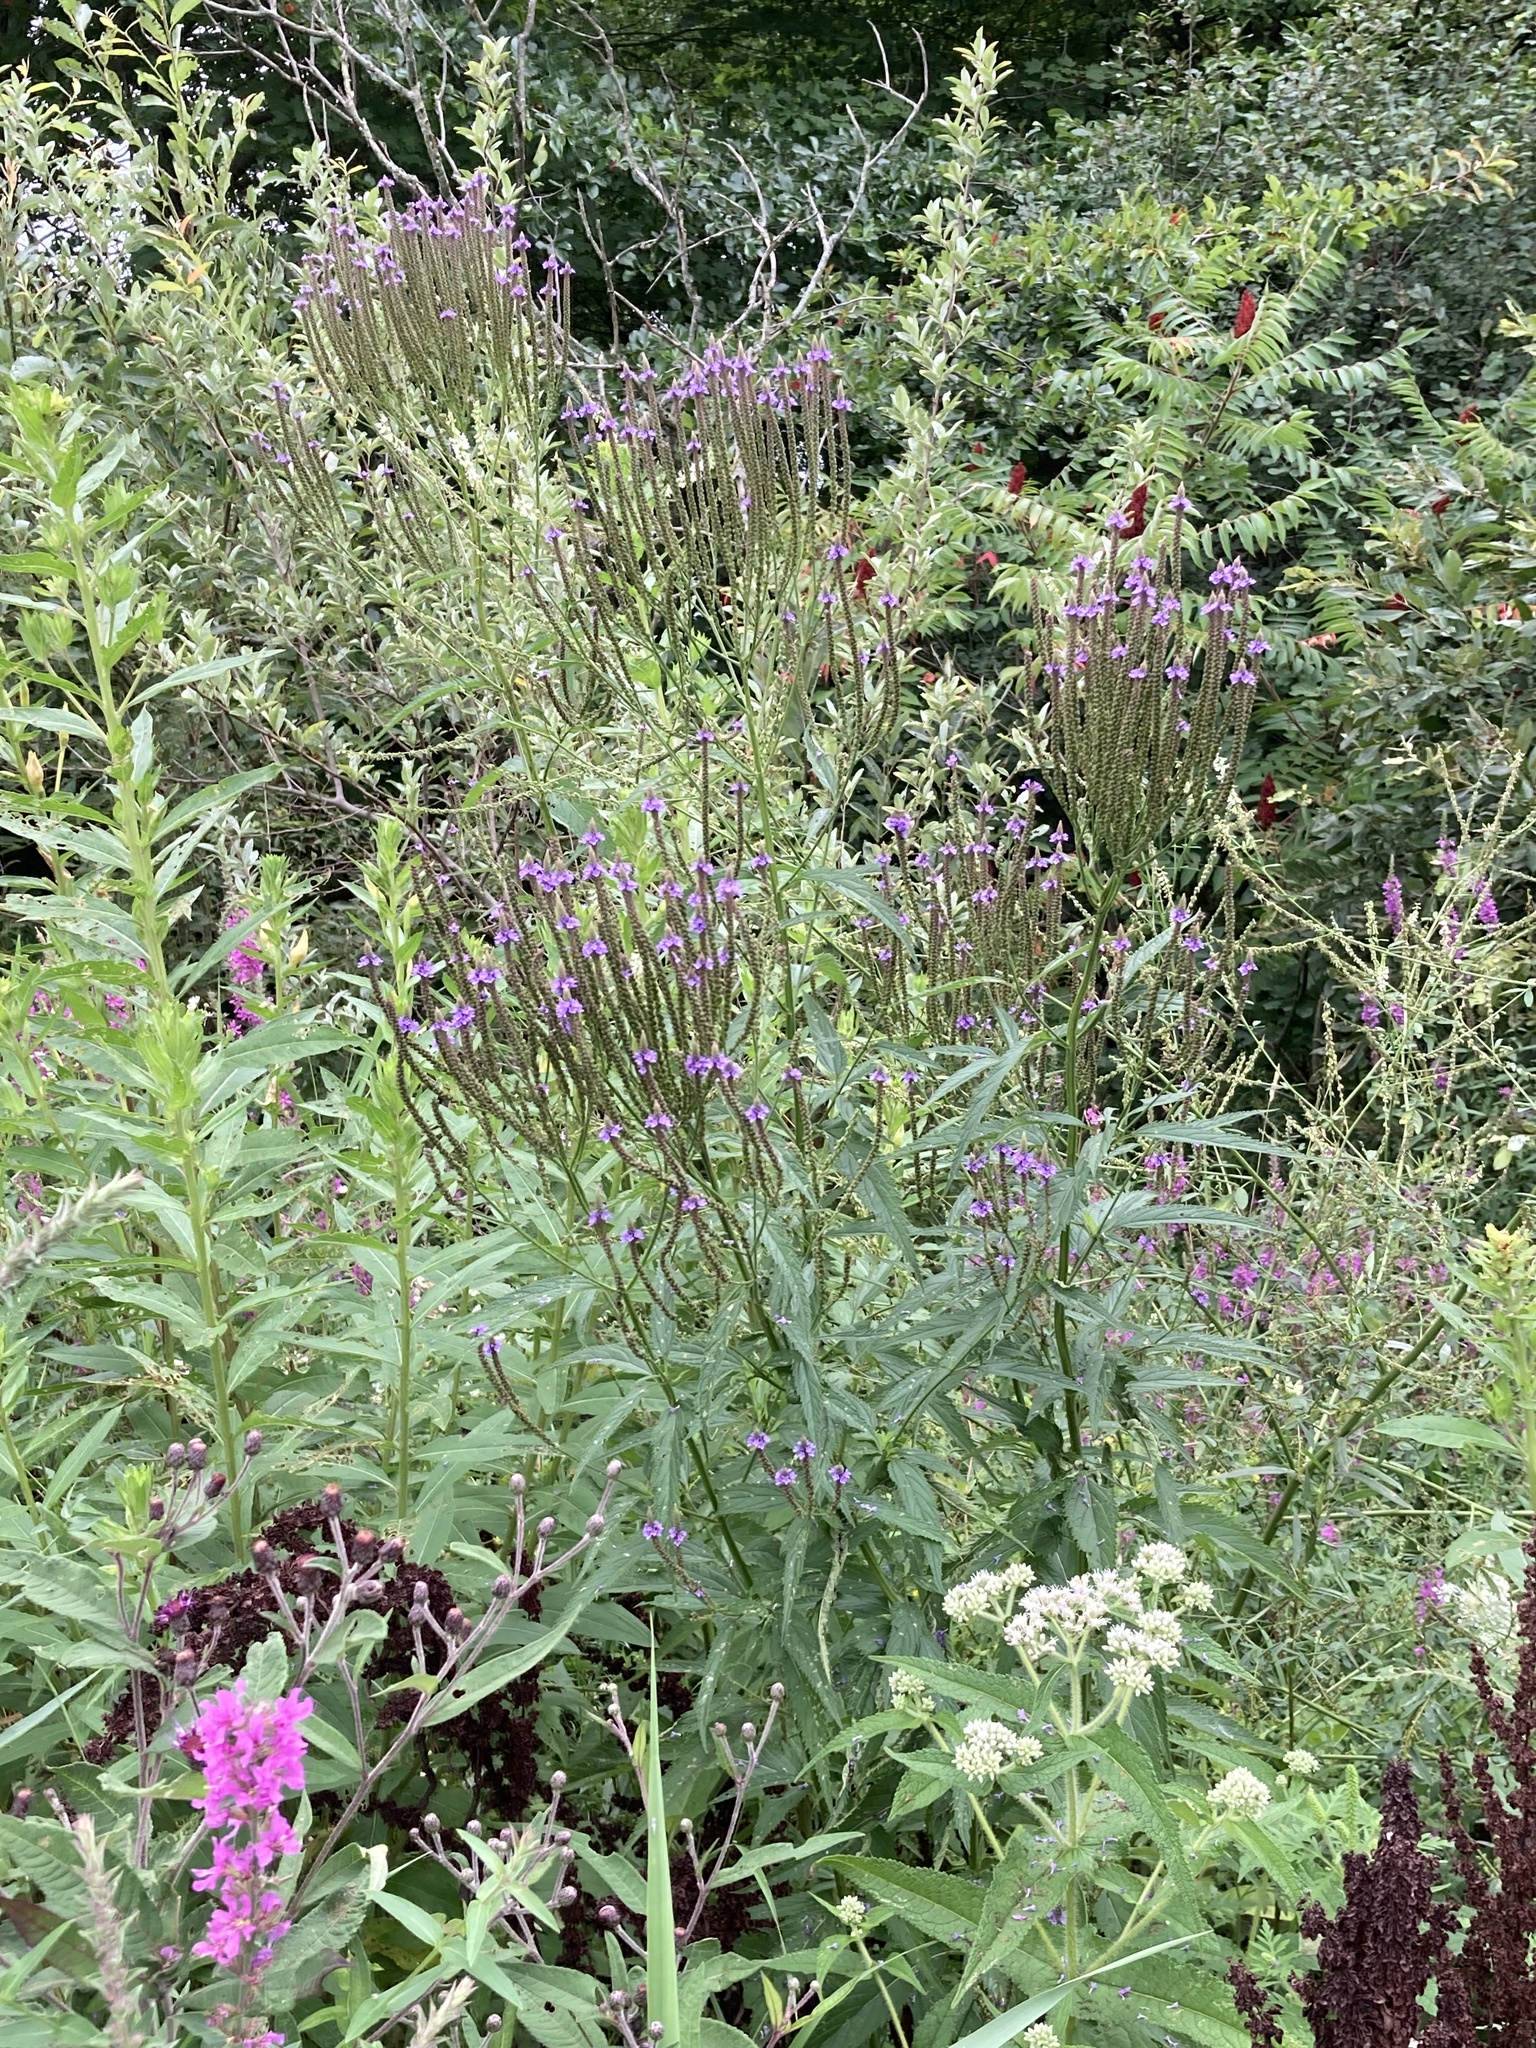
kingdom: Plantae
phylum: Tracheophyta
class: Magnoliopsida
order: Lamiales
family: Verbenaceae
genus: Verbena
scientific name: Verbena hastata
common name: American blue vervain
